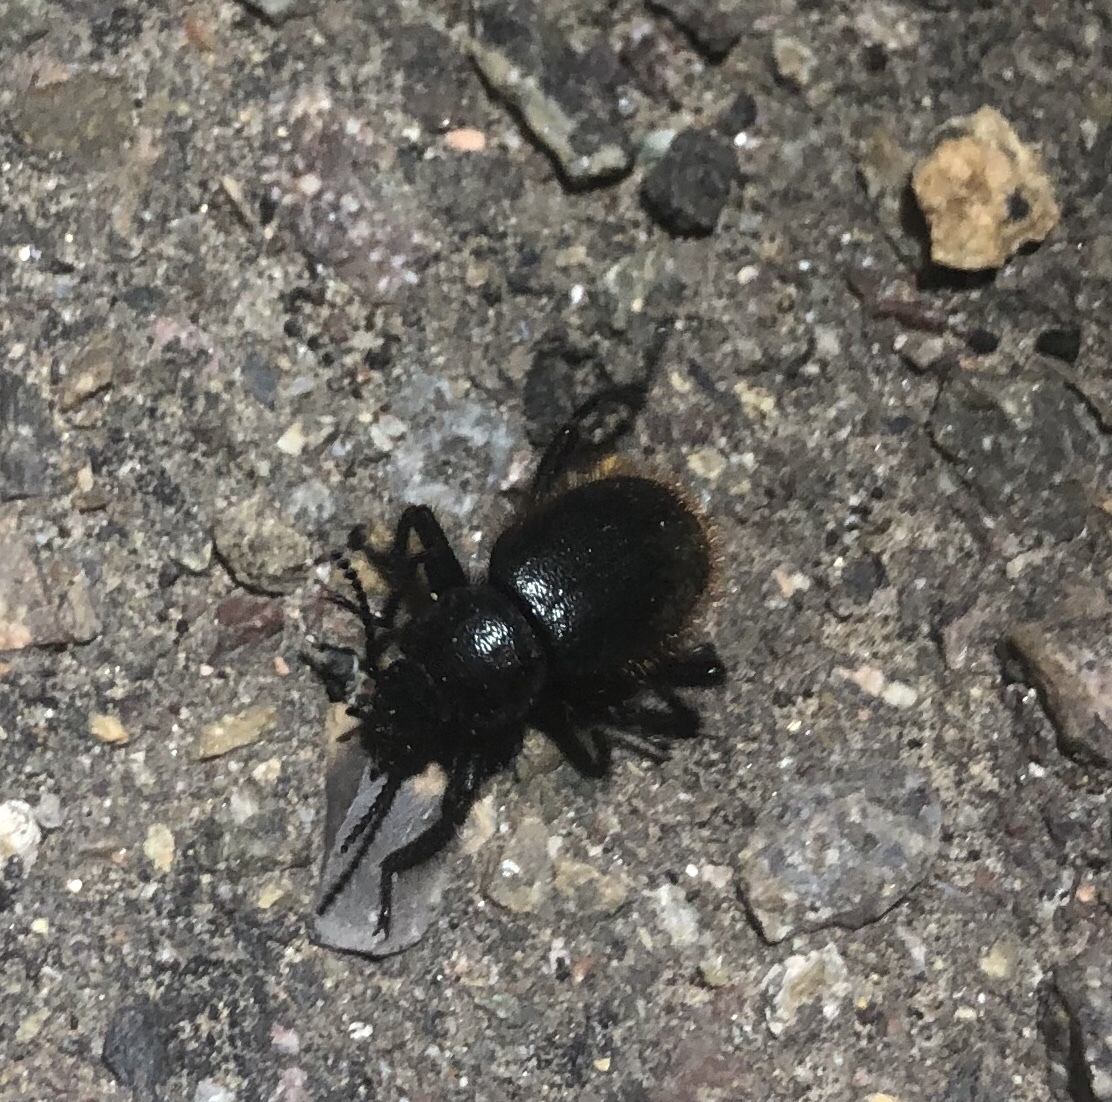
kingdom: Animalia
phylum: Arthropoda
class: Insecta
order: Coleoptera
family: Tenebrionidae
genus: Eleodes
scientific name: Eleodes osculans
